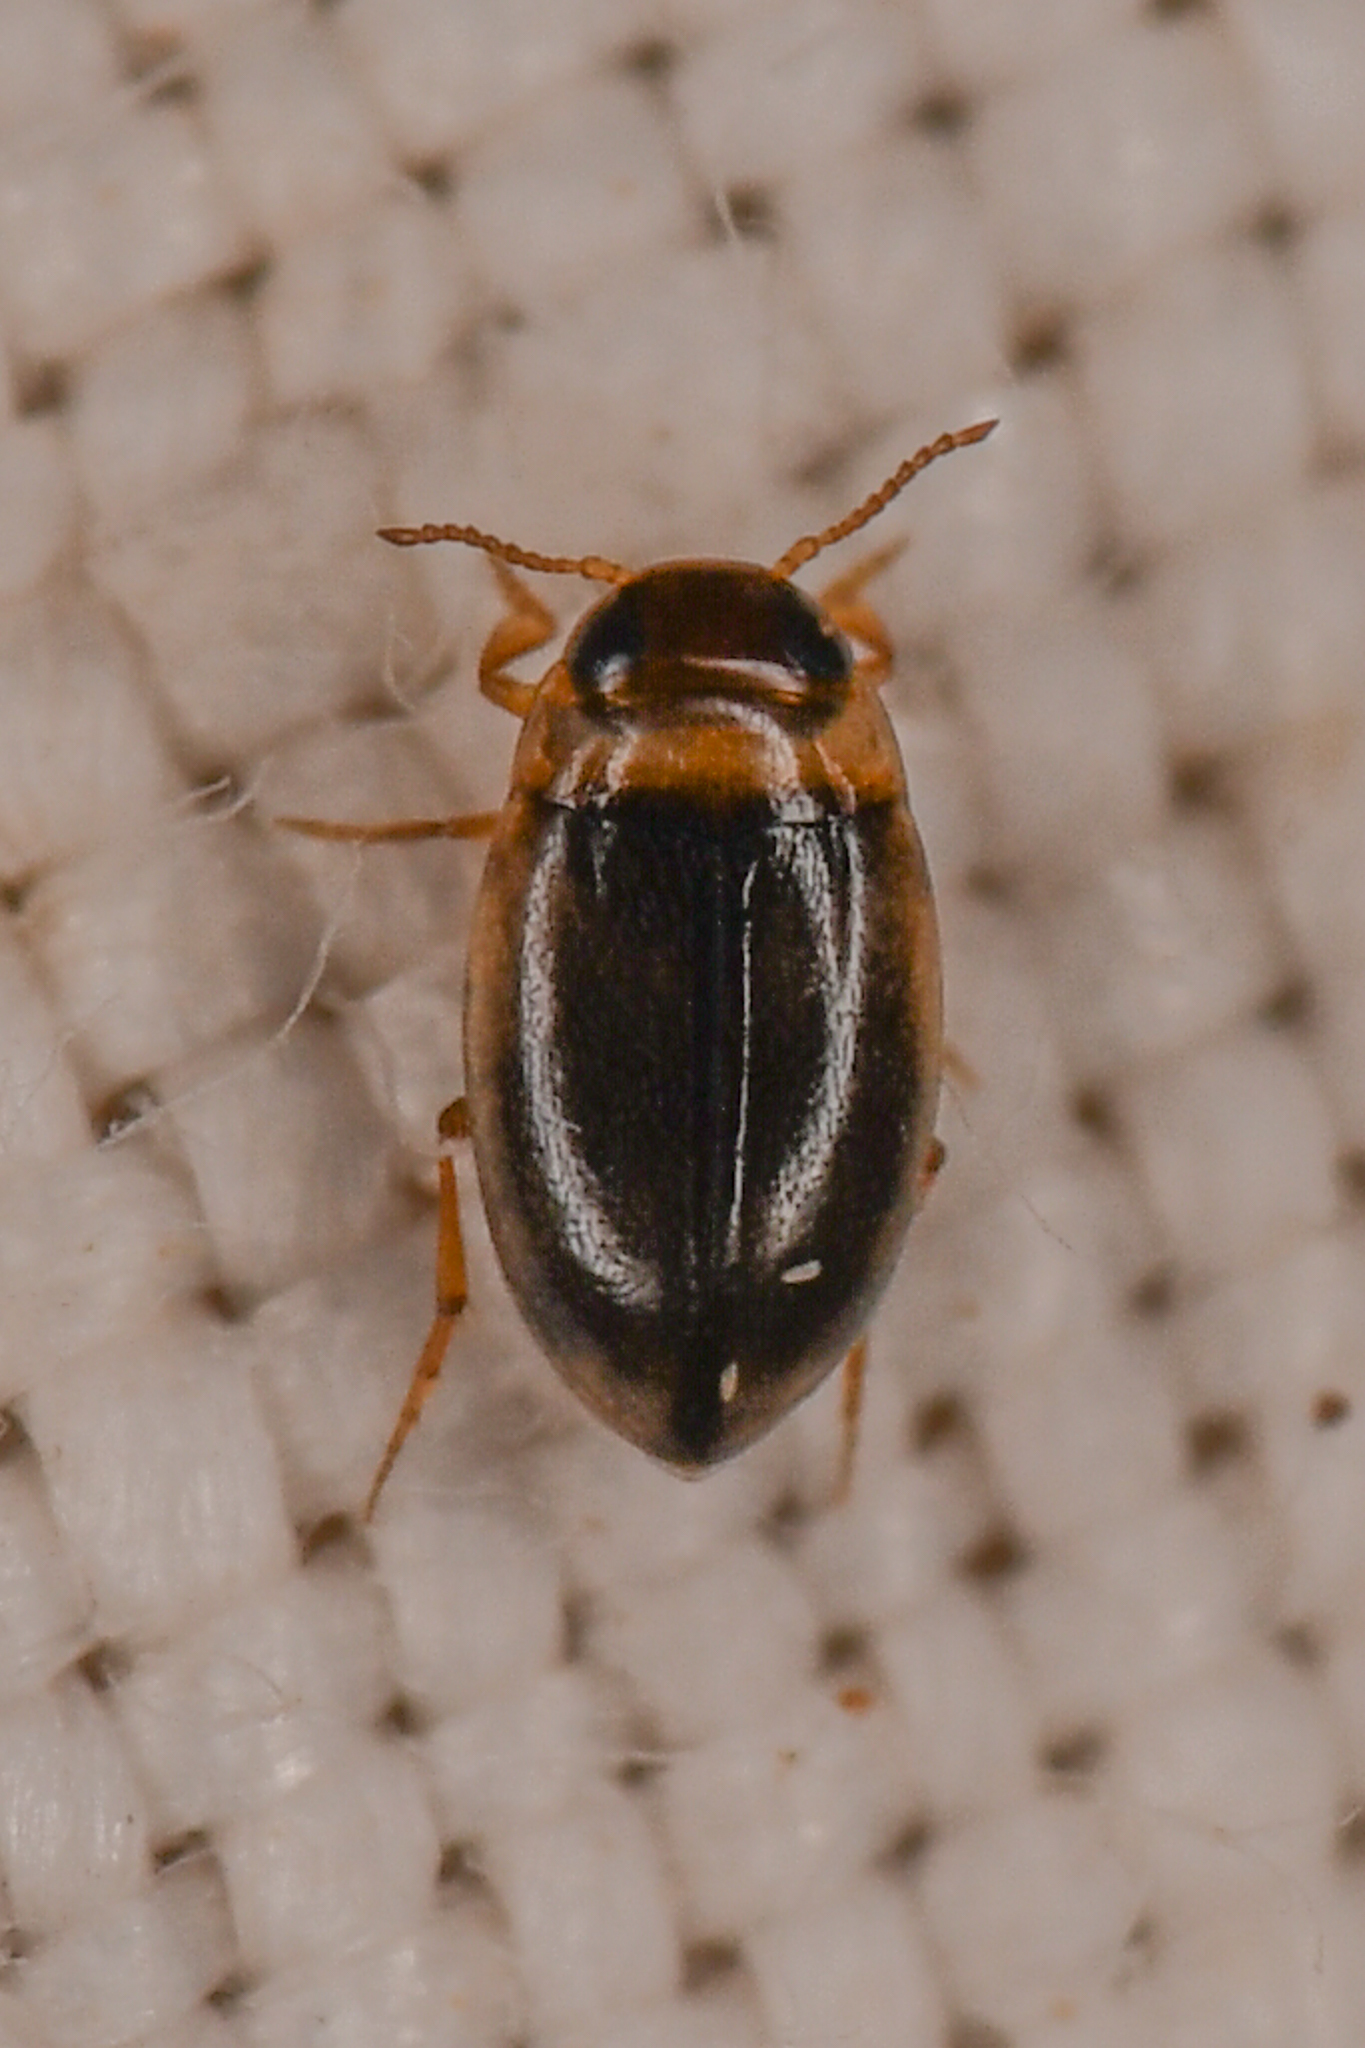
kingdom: Animalia
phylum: Arthropoda
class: Insecta
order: Coleoptera
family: Dytiscidae
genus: Bidessini
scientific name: Bidessini
